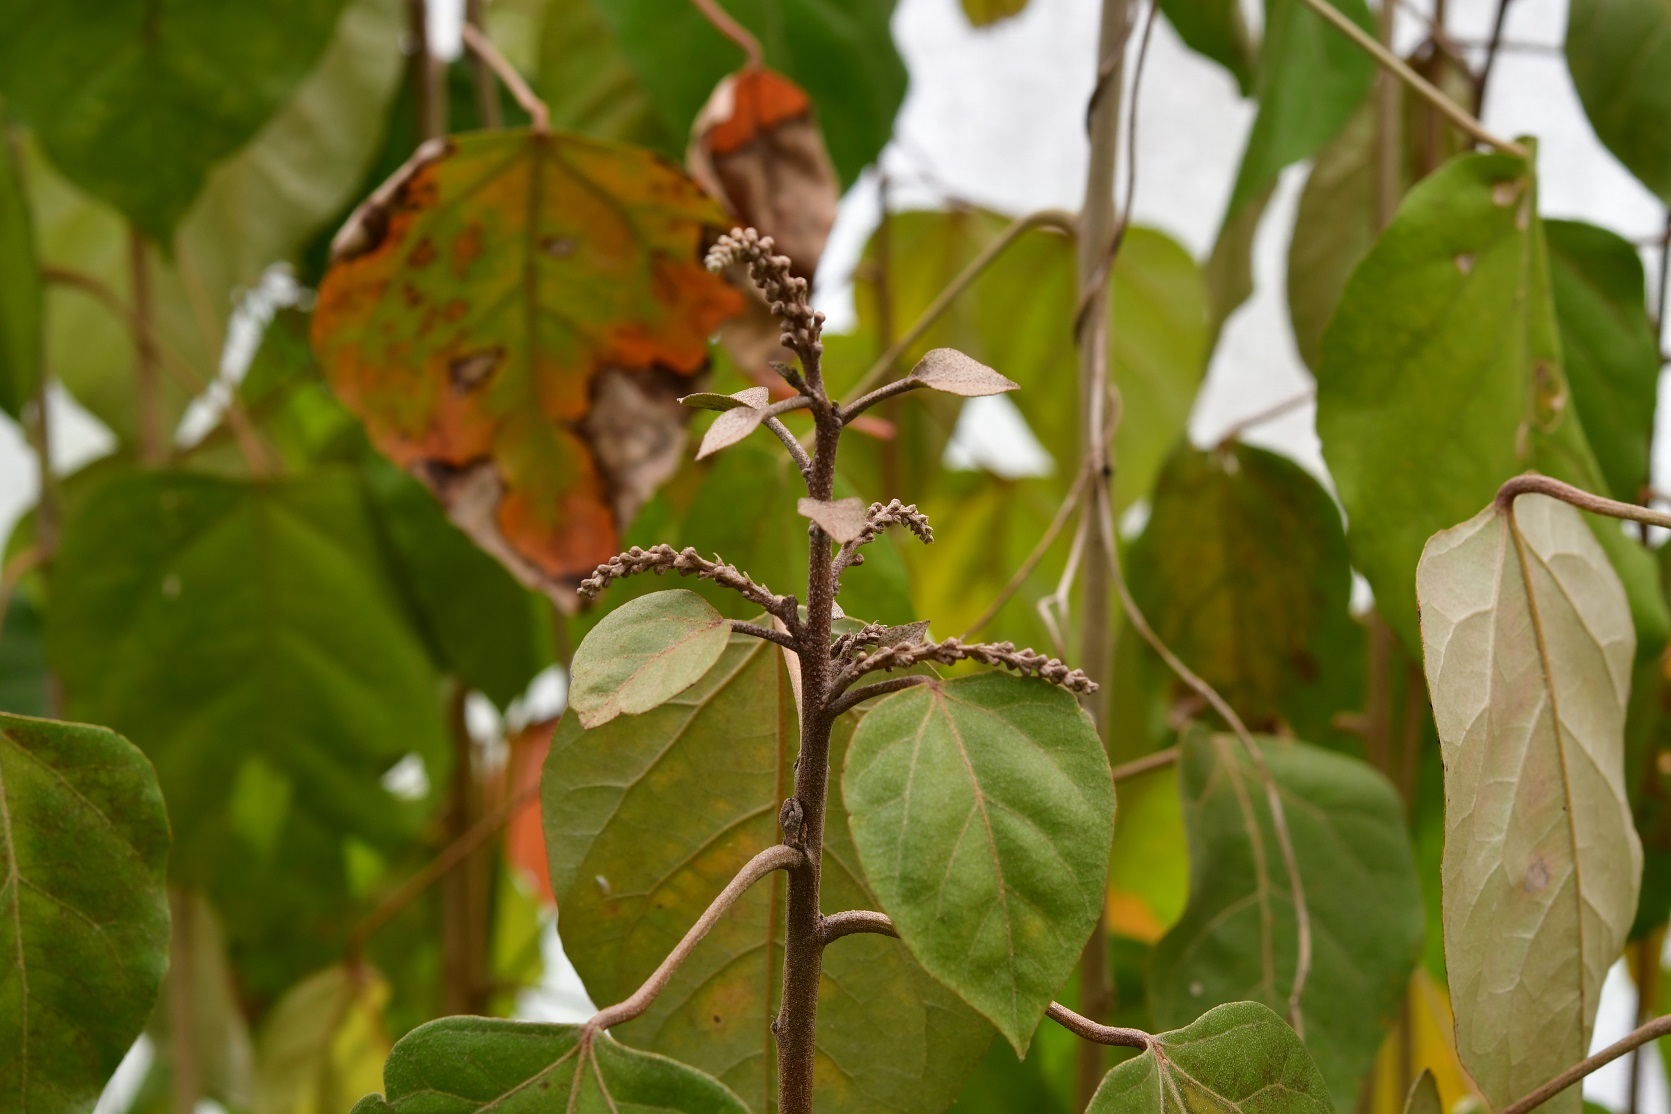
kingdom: Plantae
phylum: Tracheophyta
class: Magnoliopsida
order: Malpighiales
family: Euphorbiaceae
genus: Croton
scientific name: Croton guatemalensis
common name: Copalchi
